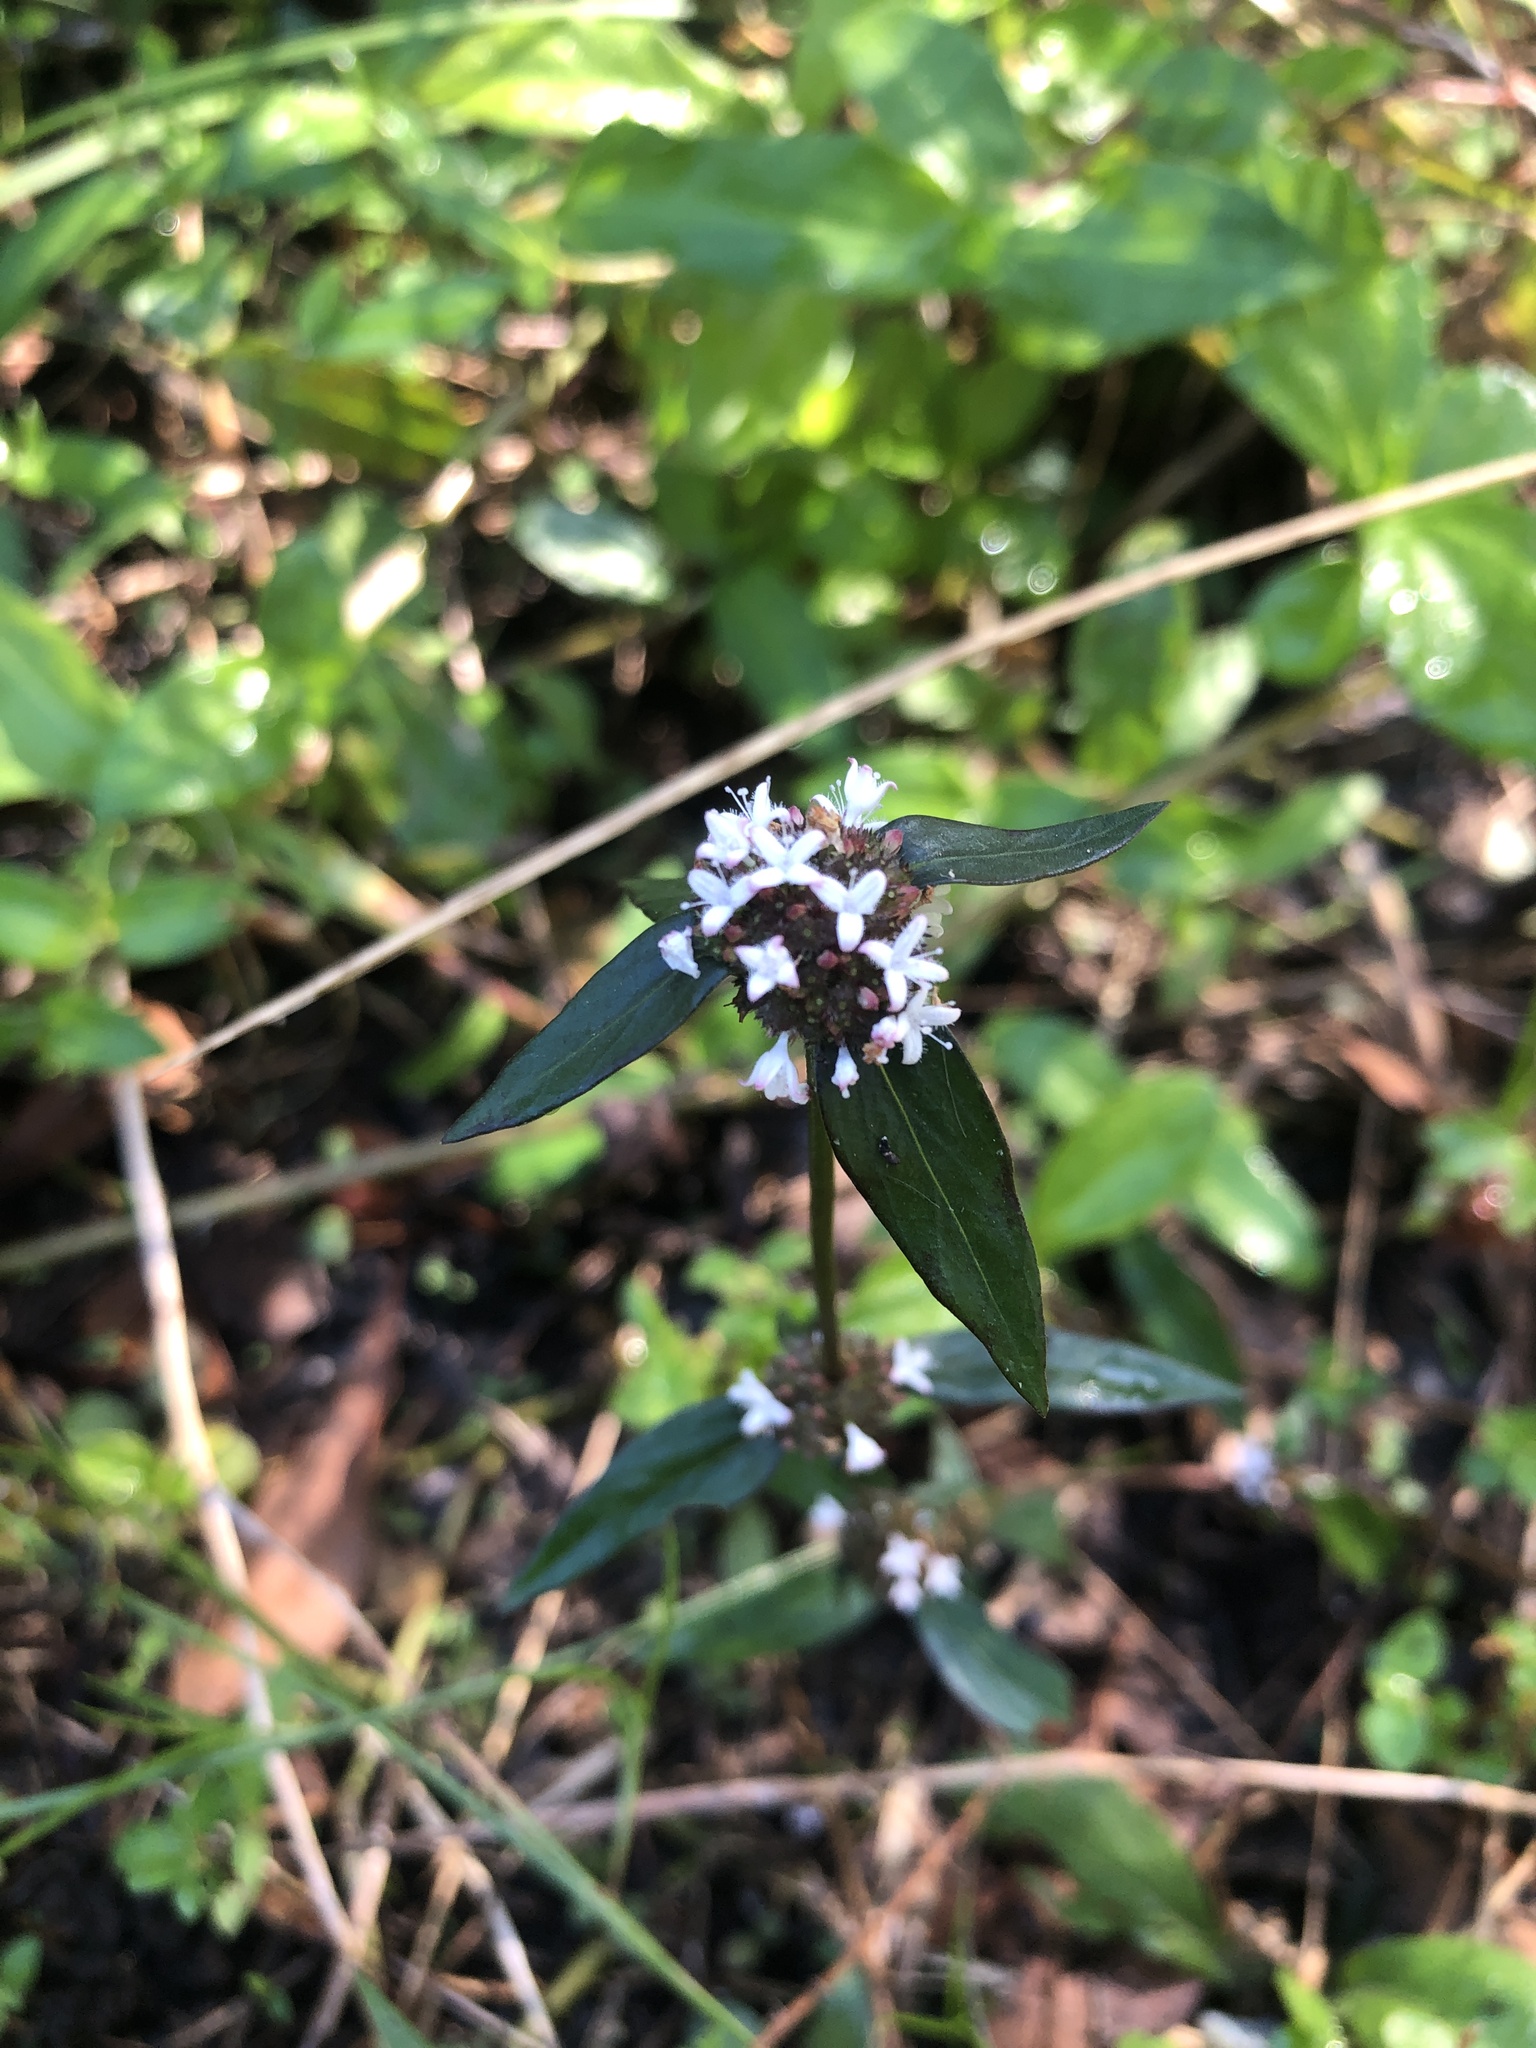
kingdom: Plantae
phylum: Tracheophyta
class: Magnoliopsida
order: Gentianales
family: Rubiaceae
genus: Spermacoce
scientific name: Spermacoce remota
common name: Woodland false buttonweed
